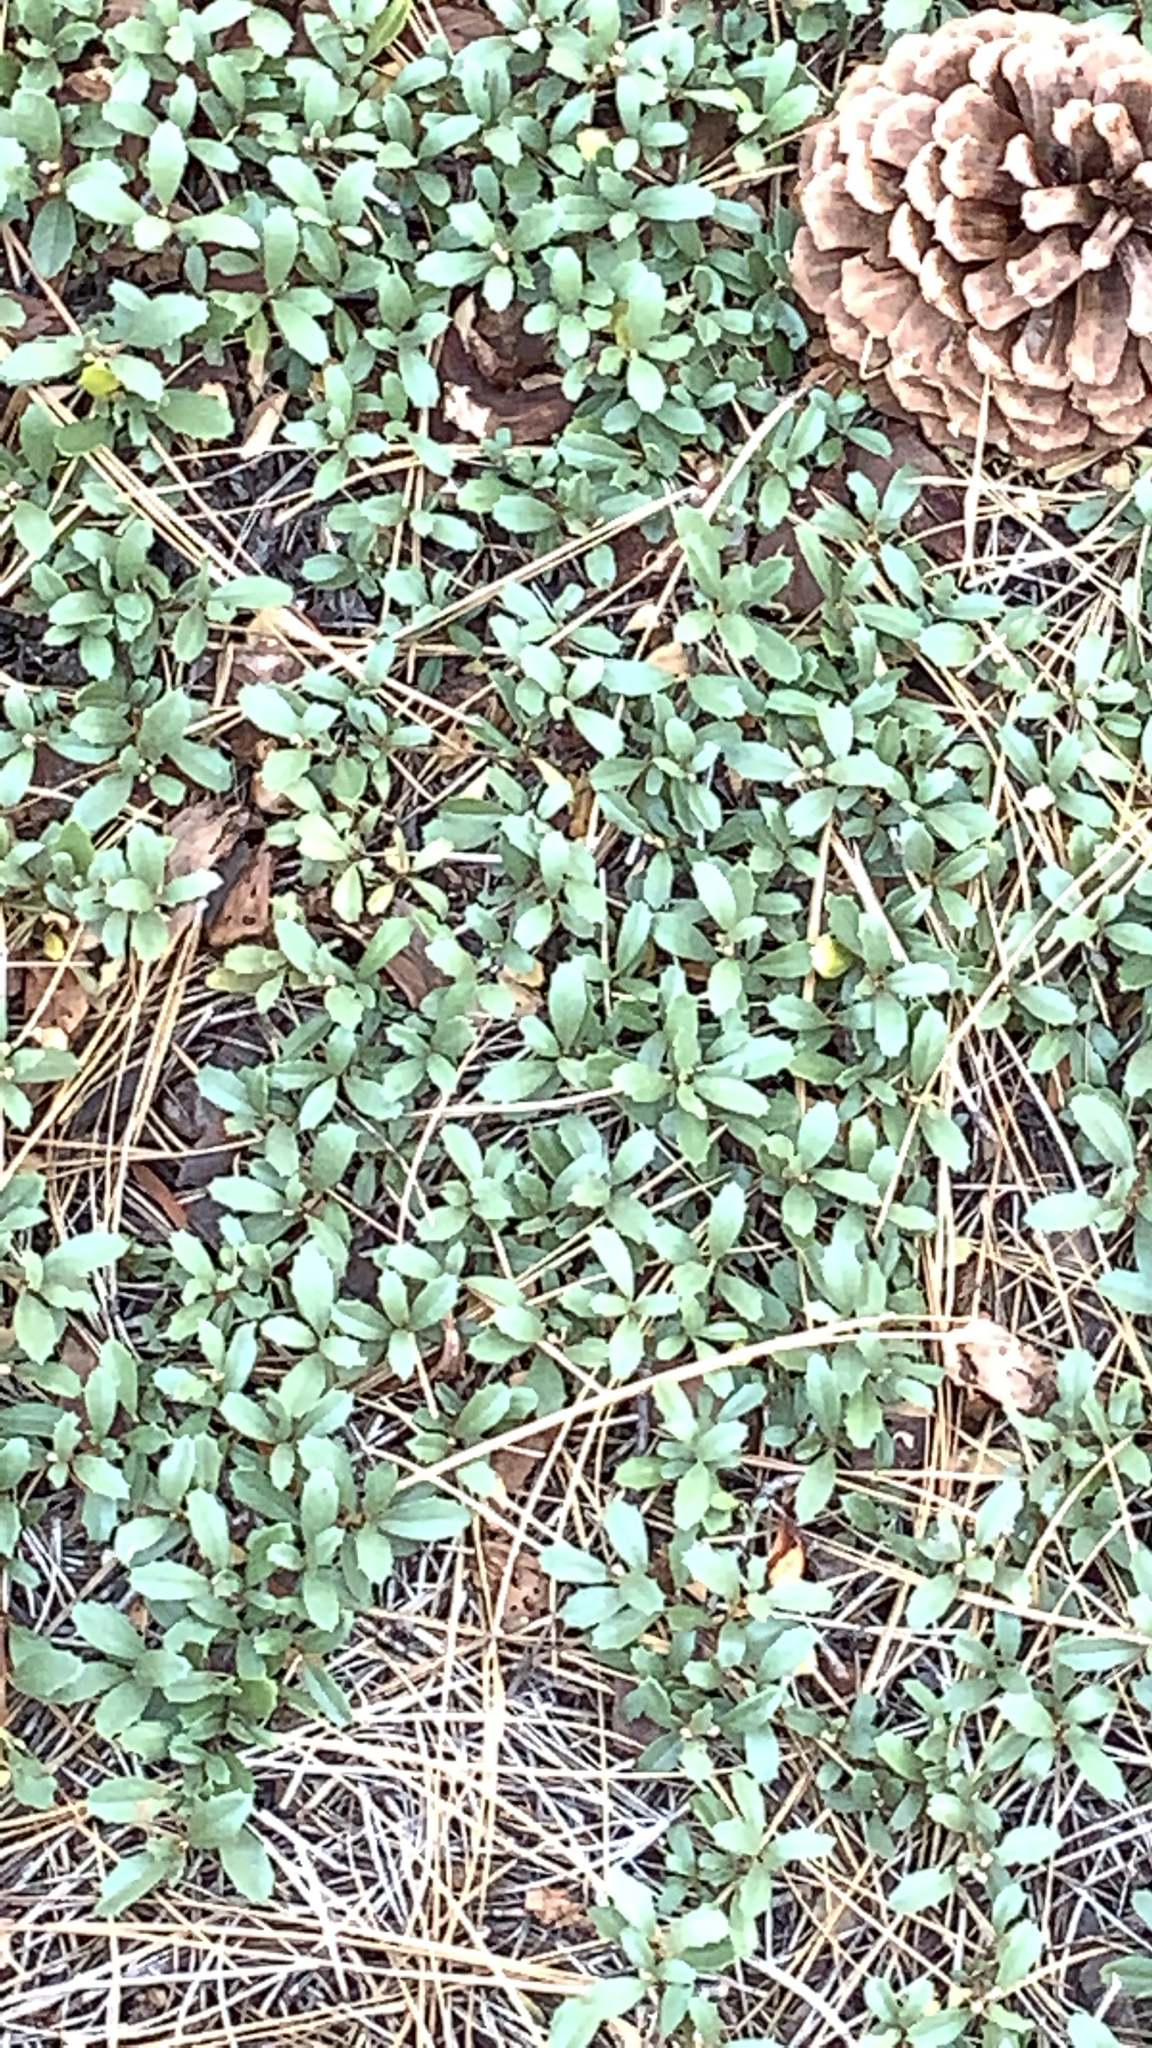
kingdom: Plantae
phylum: Tracheophyta
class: Magnoliopsida
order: Rosales
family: Rhamnaceae
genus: Ceanothus
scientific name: Ceanothus prostratus
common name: Mahala-mat
